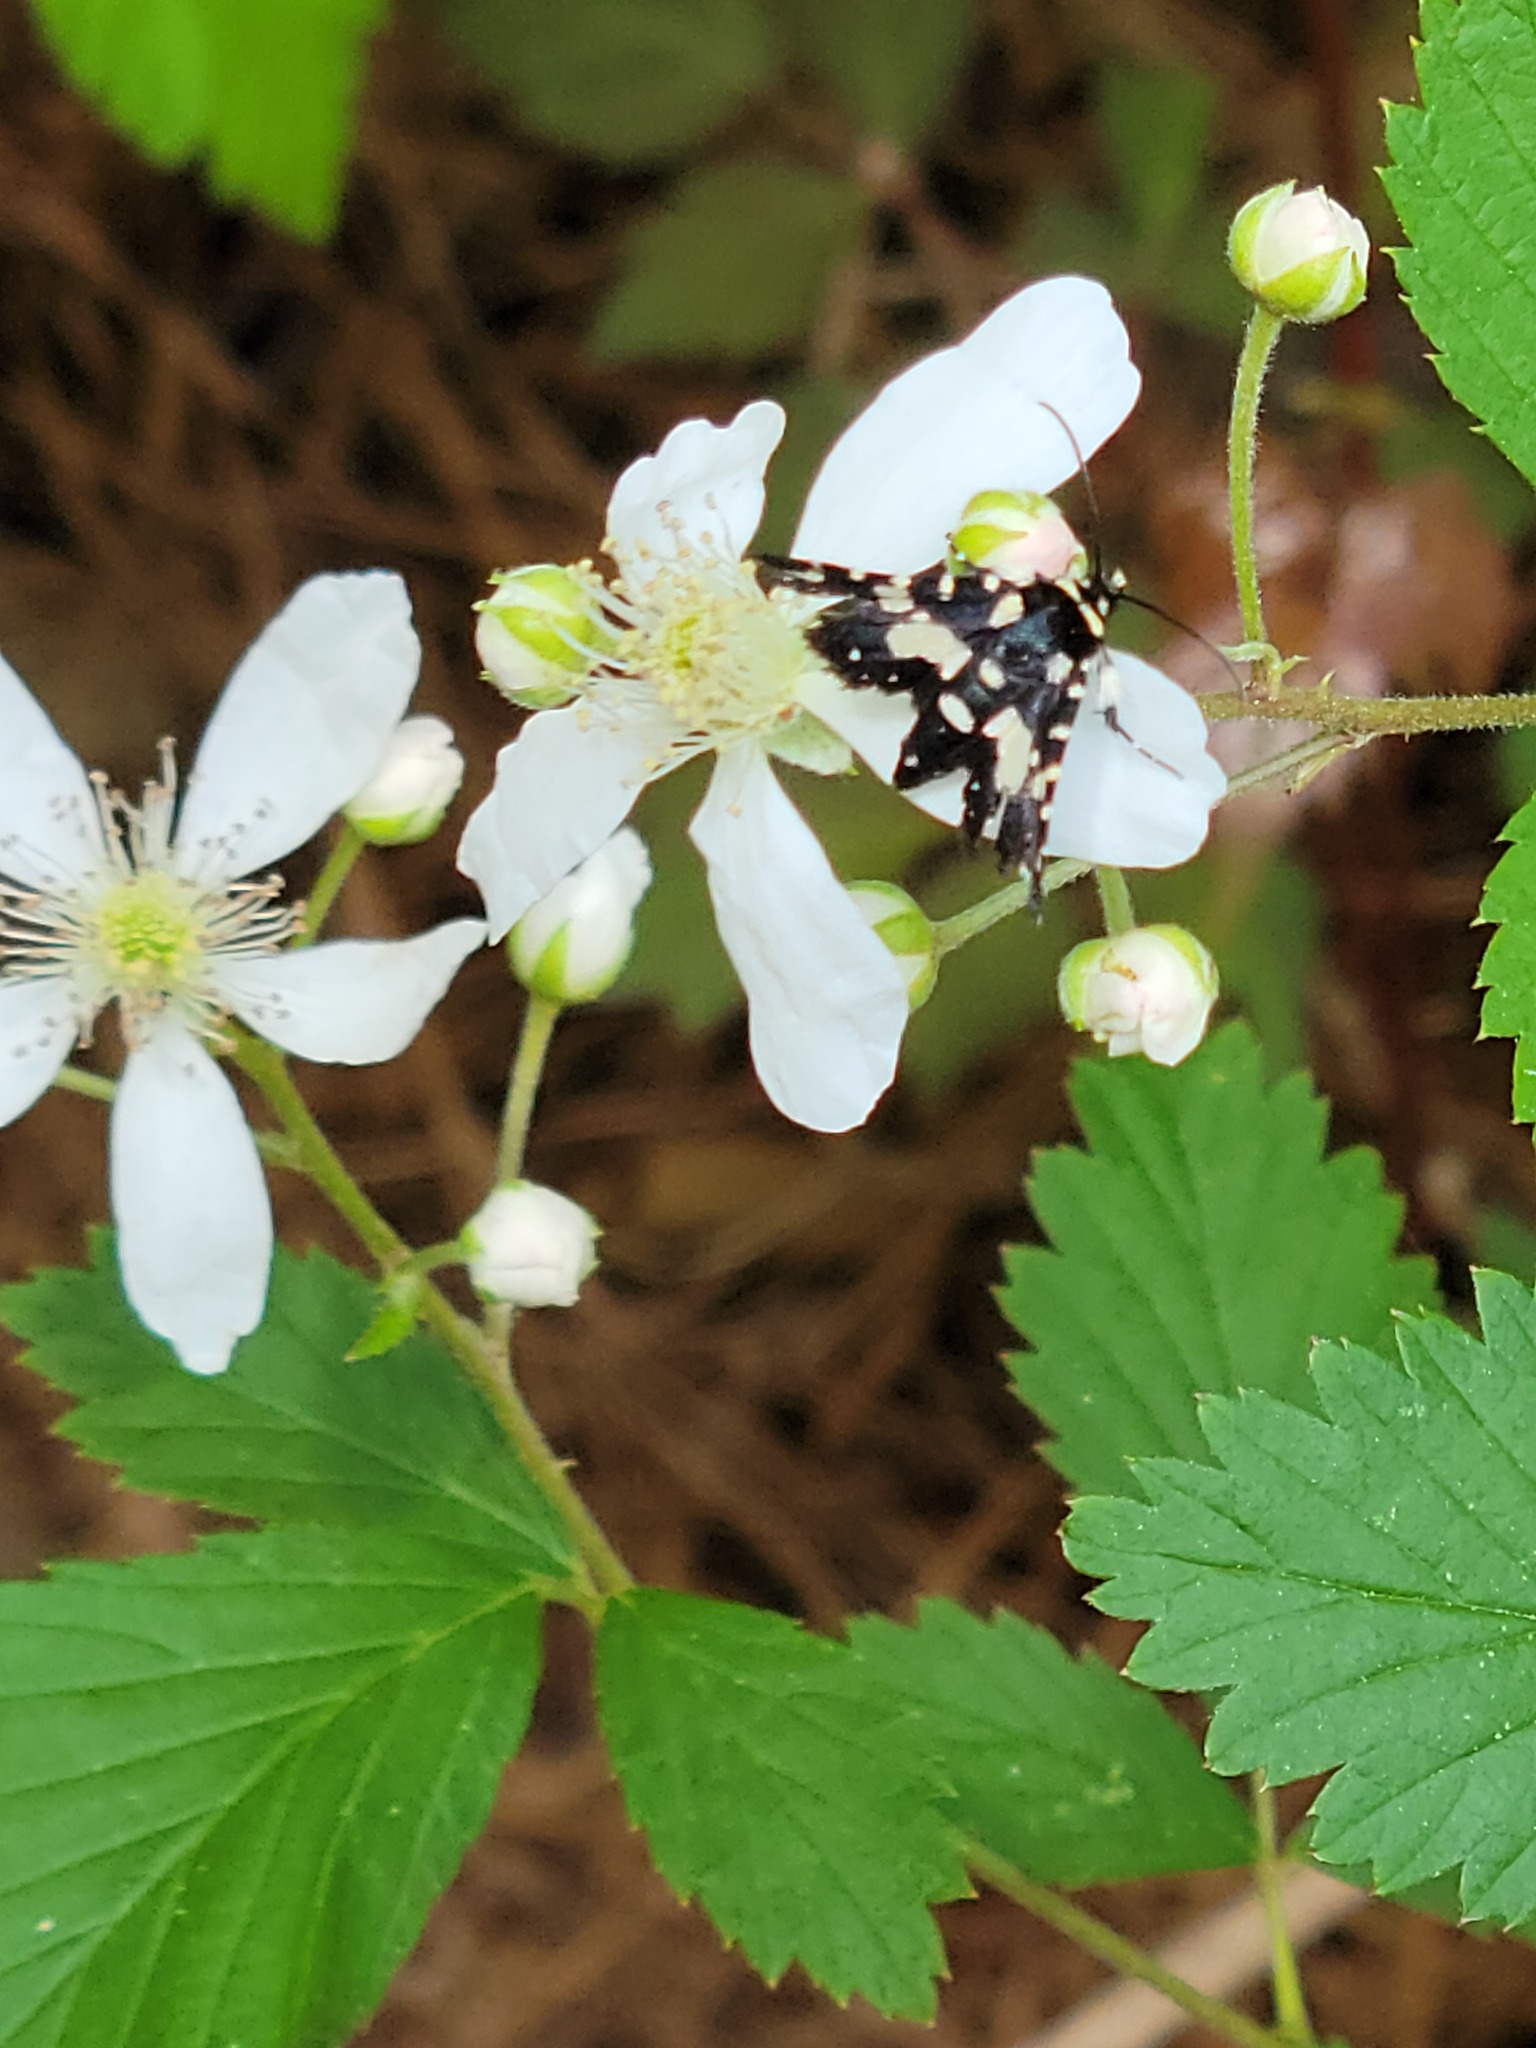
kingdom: Animalia
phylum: Arthropoda
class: Insecta
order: Lepidoptera
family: Thyrididae
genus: Pseudothyris
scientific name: Pseudothyris sepulchralis
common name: Mournful thyris moth
